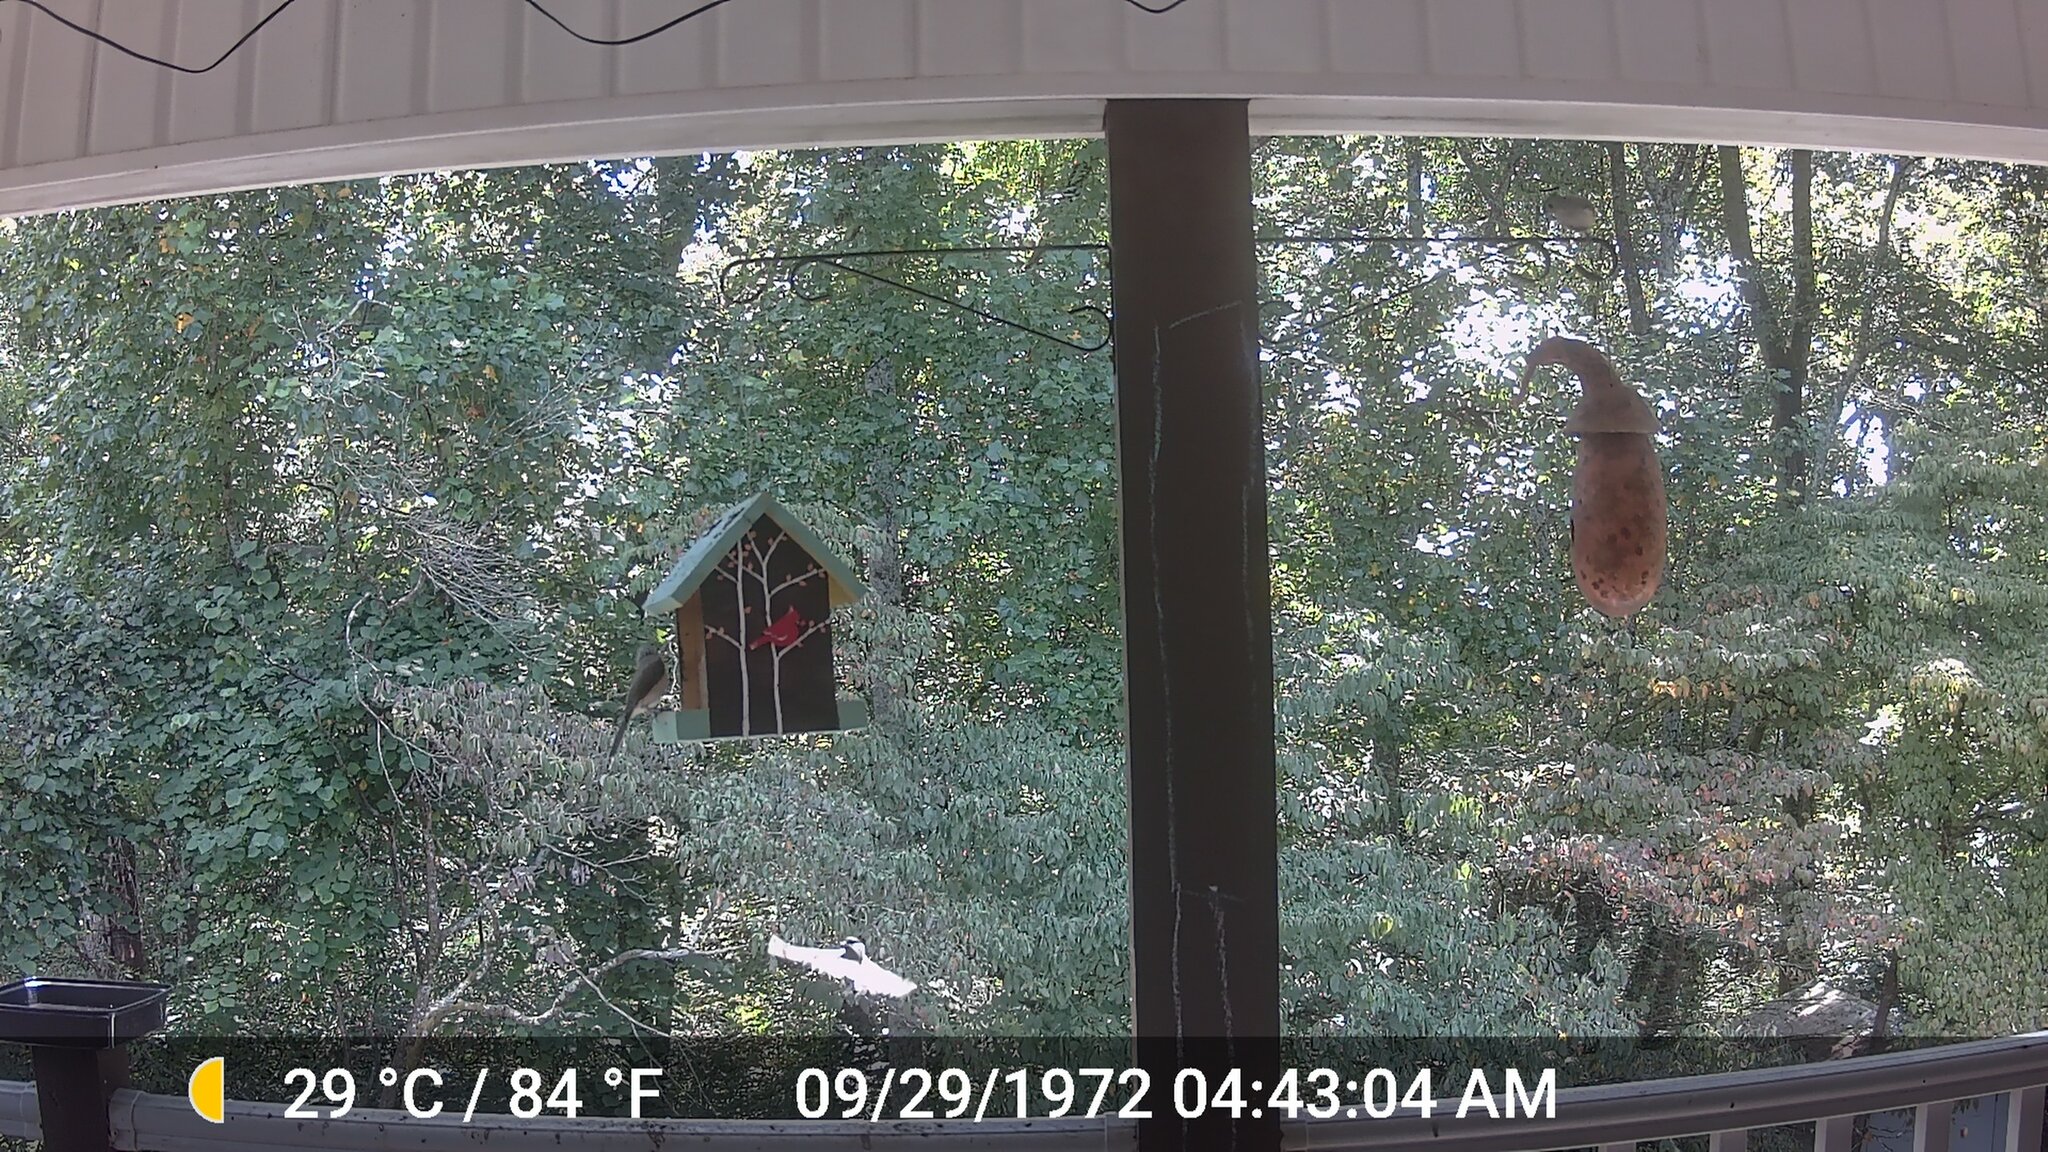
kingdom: Animalia
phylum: Chordata
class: Aves
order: Passeriformes
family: Paridae
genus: Baeolophus
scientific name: Baeolophus bicolor
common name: Tufted titmouse
